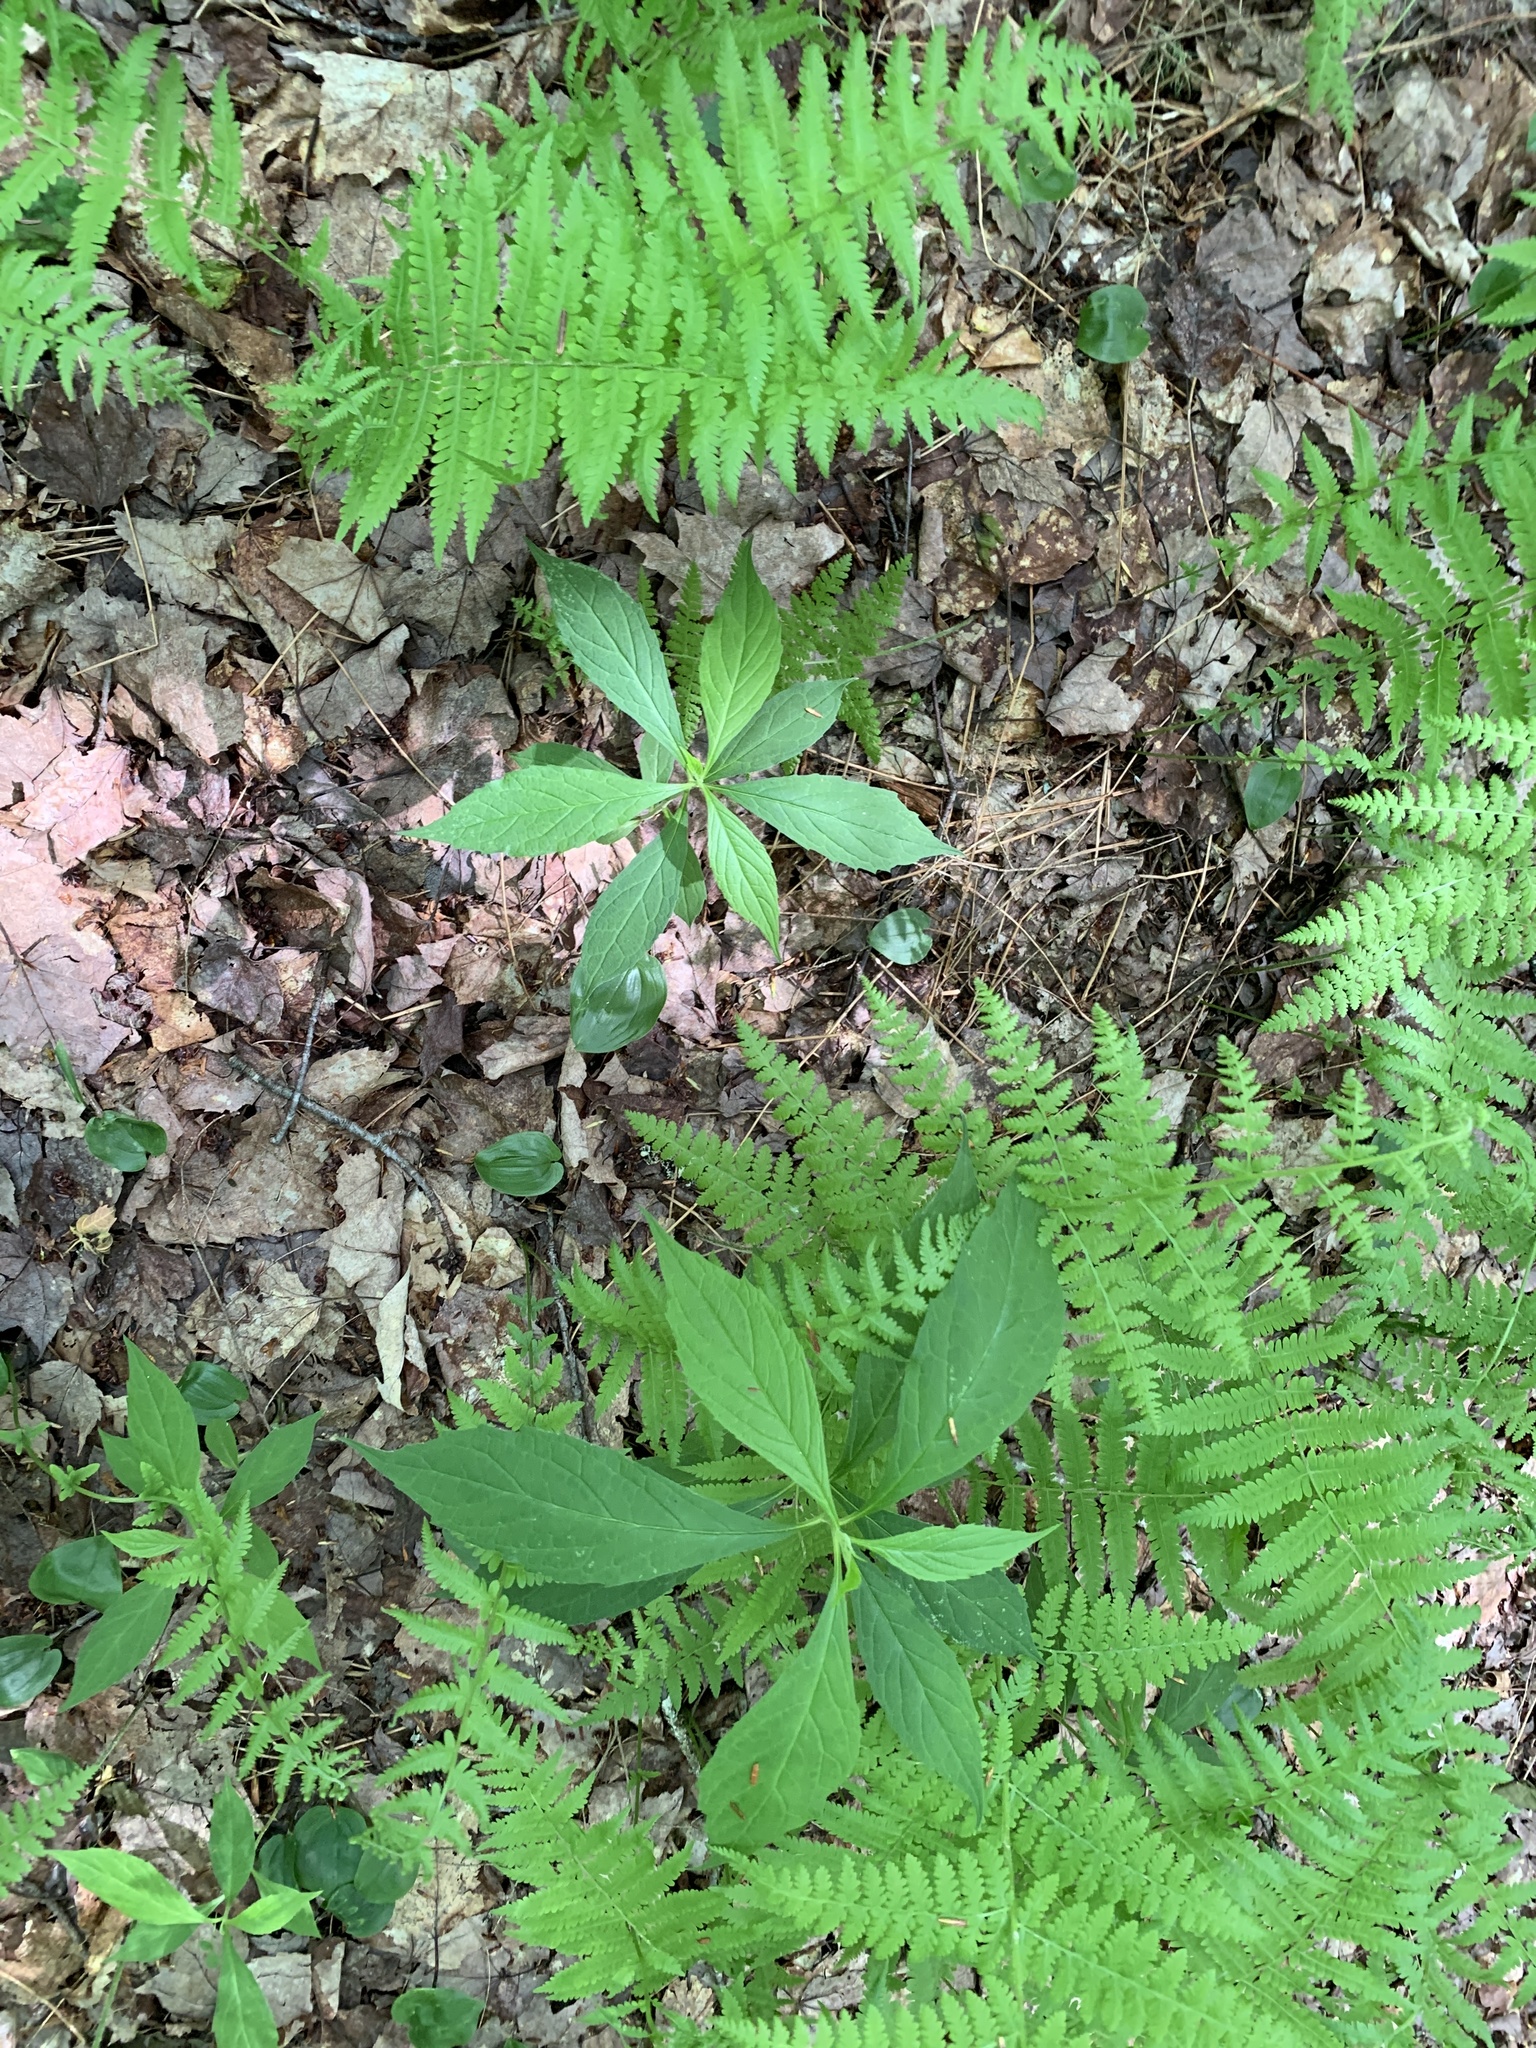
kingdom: Plantae
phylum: Tracheophyta
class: Magnoliopsida
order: Asterales
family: Asteraceae
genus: Oclemena
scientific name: Oclemena acuminata
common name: Mountain aster
